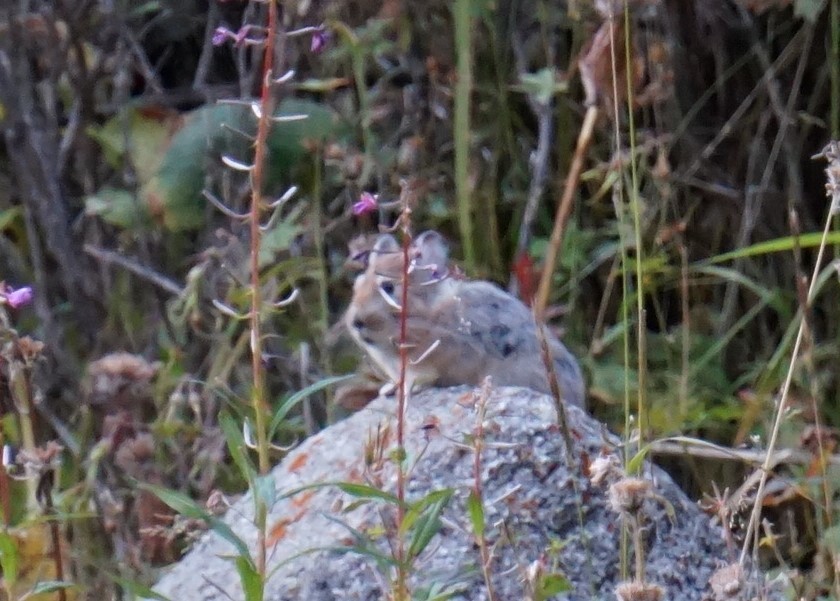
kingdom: Animalia
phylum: Chordata
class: Mammalia
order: Lagomorpha
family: Ochotonidae
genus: Ochotona
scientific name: Ochotona macrotis
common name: Large-eared pika
